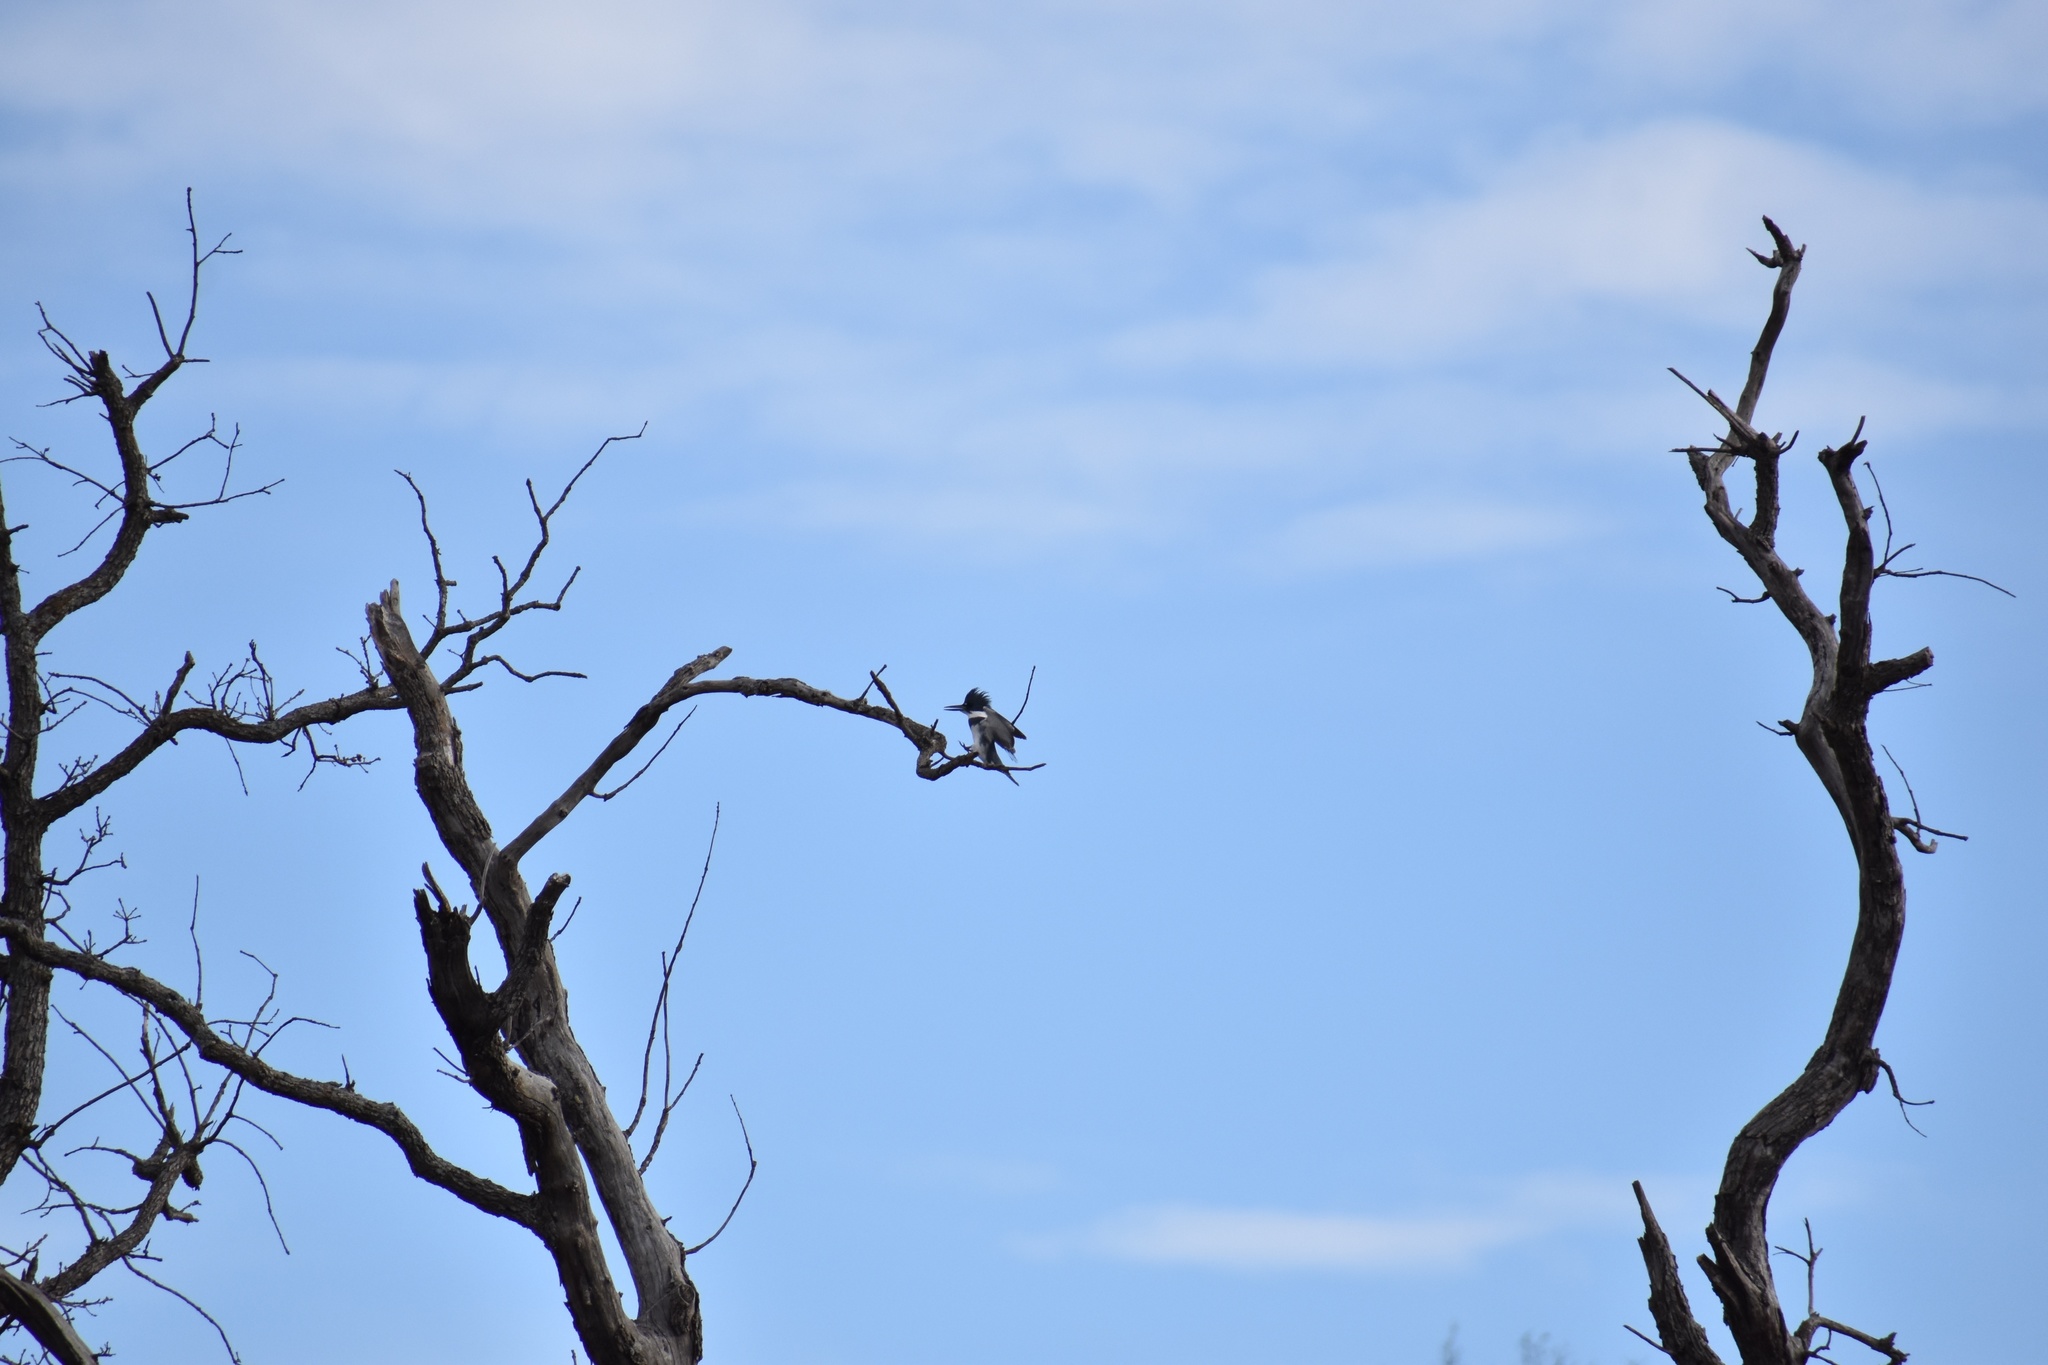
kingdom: Animalia
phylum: Chordata
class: Aves
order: Coraciiformes
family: Alcedinidae
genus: Megaceryle
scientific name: Megaceryle alcyon
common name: Belted kingfisher
